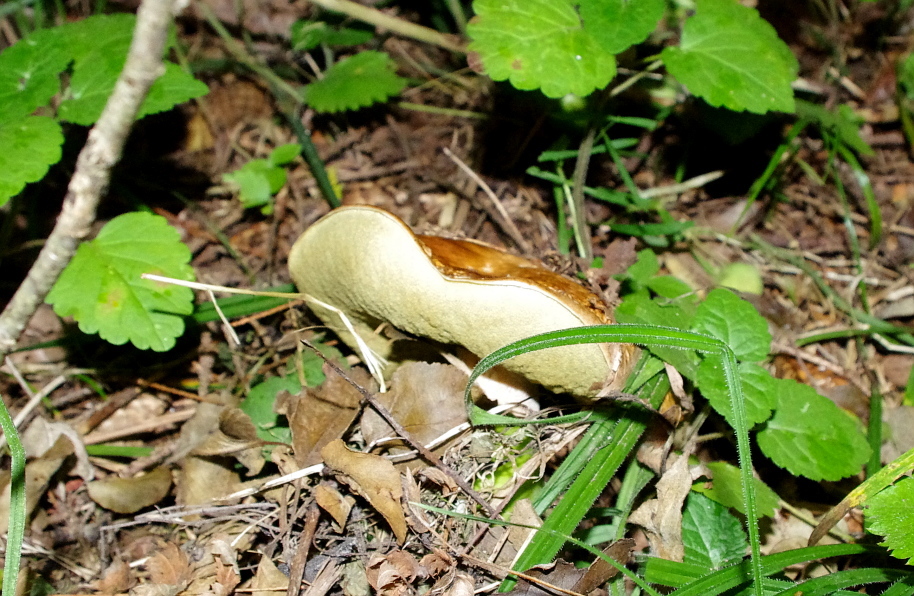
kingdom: Fungi
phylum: Basidiomycota
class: Agaricomycetes
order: Boletales
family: Boletaceae
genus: Boletus
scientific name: Boletus edulis
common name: Cep
